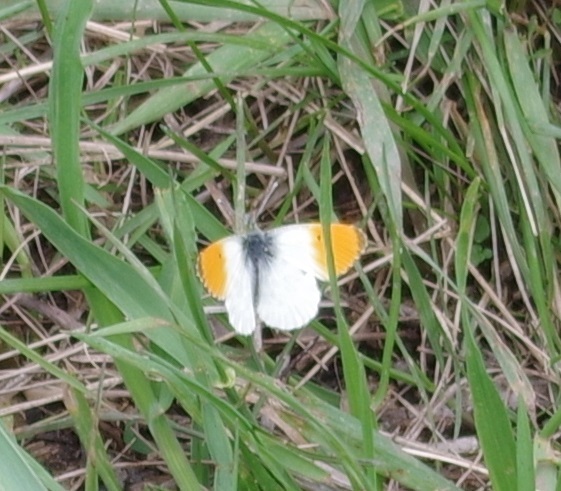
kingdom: Animalia
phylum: Arthropoda
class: Insecta
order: Lepidoptera
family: Pieridae
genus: Anthocharis
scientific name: Anthocharis cardamines
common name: Orange-tip
